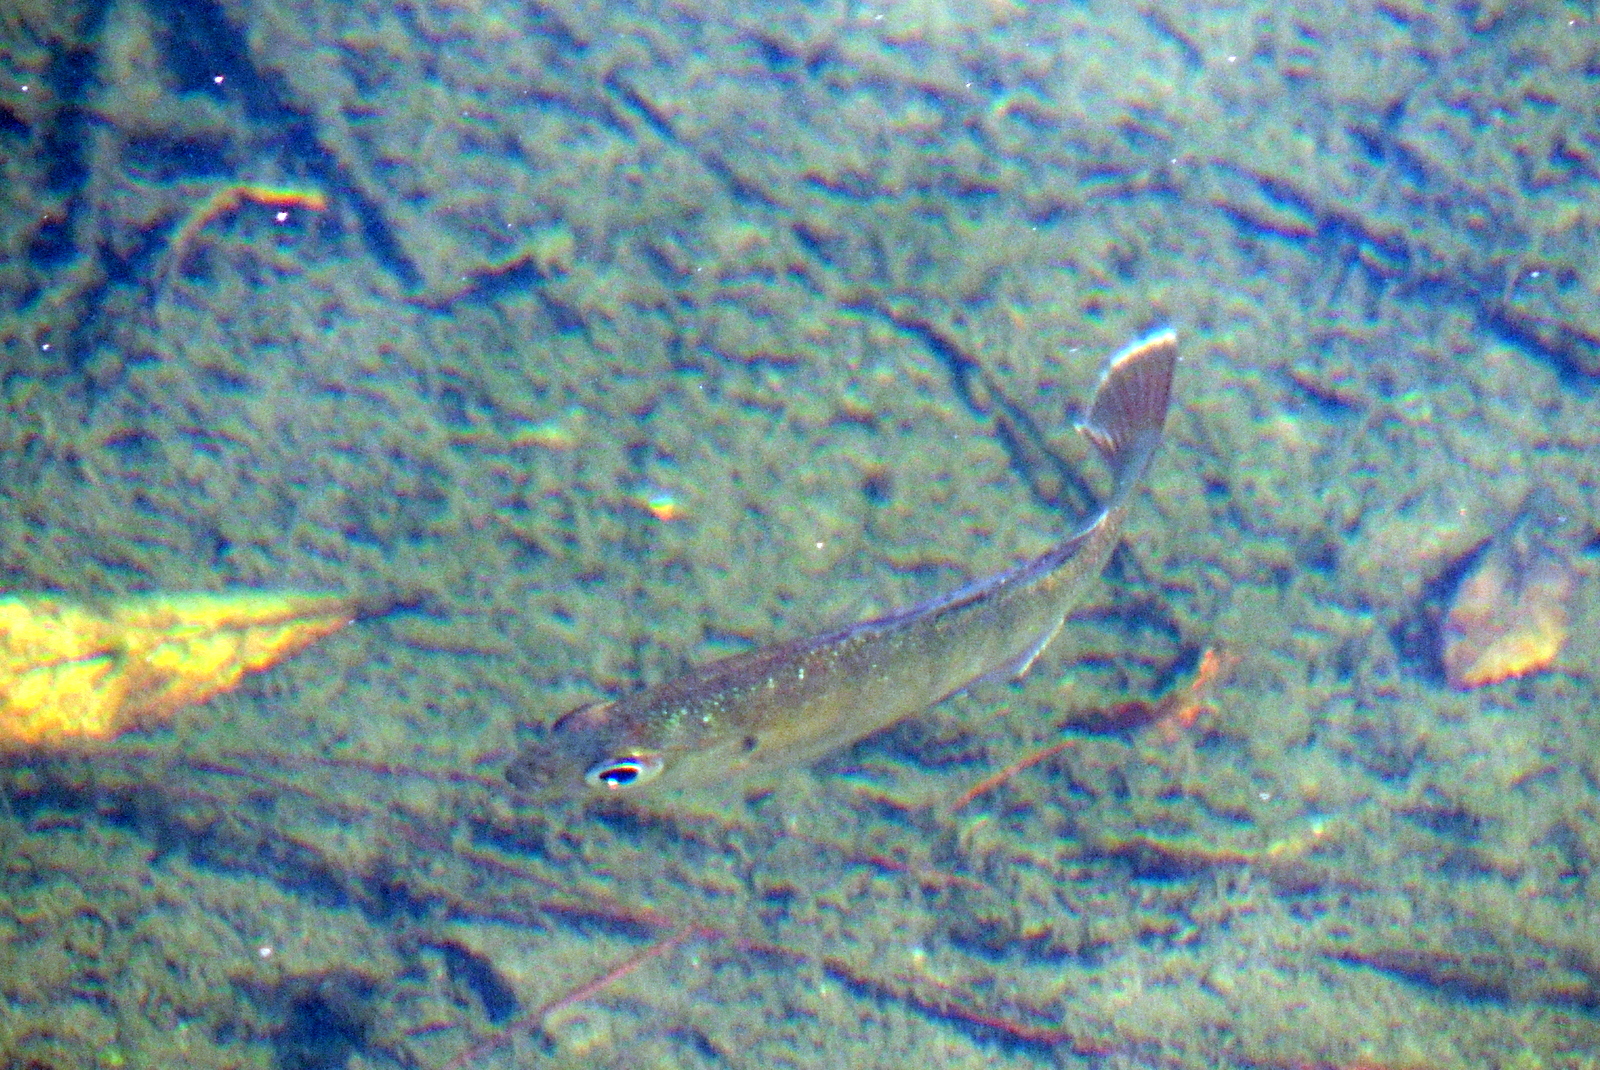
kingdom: Animalia
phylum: Chordata
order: Perciformes
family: Centrarchidae
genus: Lepomis
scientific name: Lepomis macrochirus
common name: Bluegill
